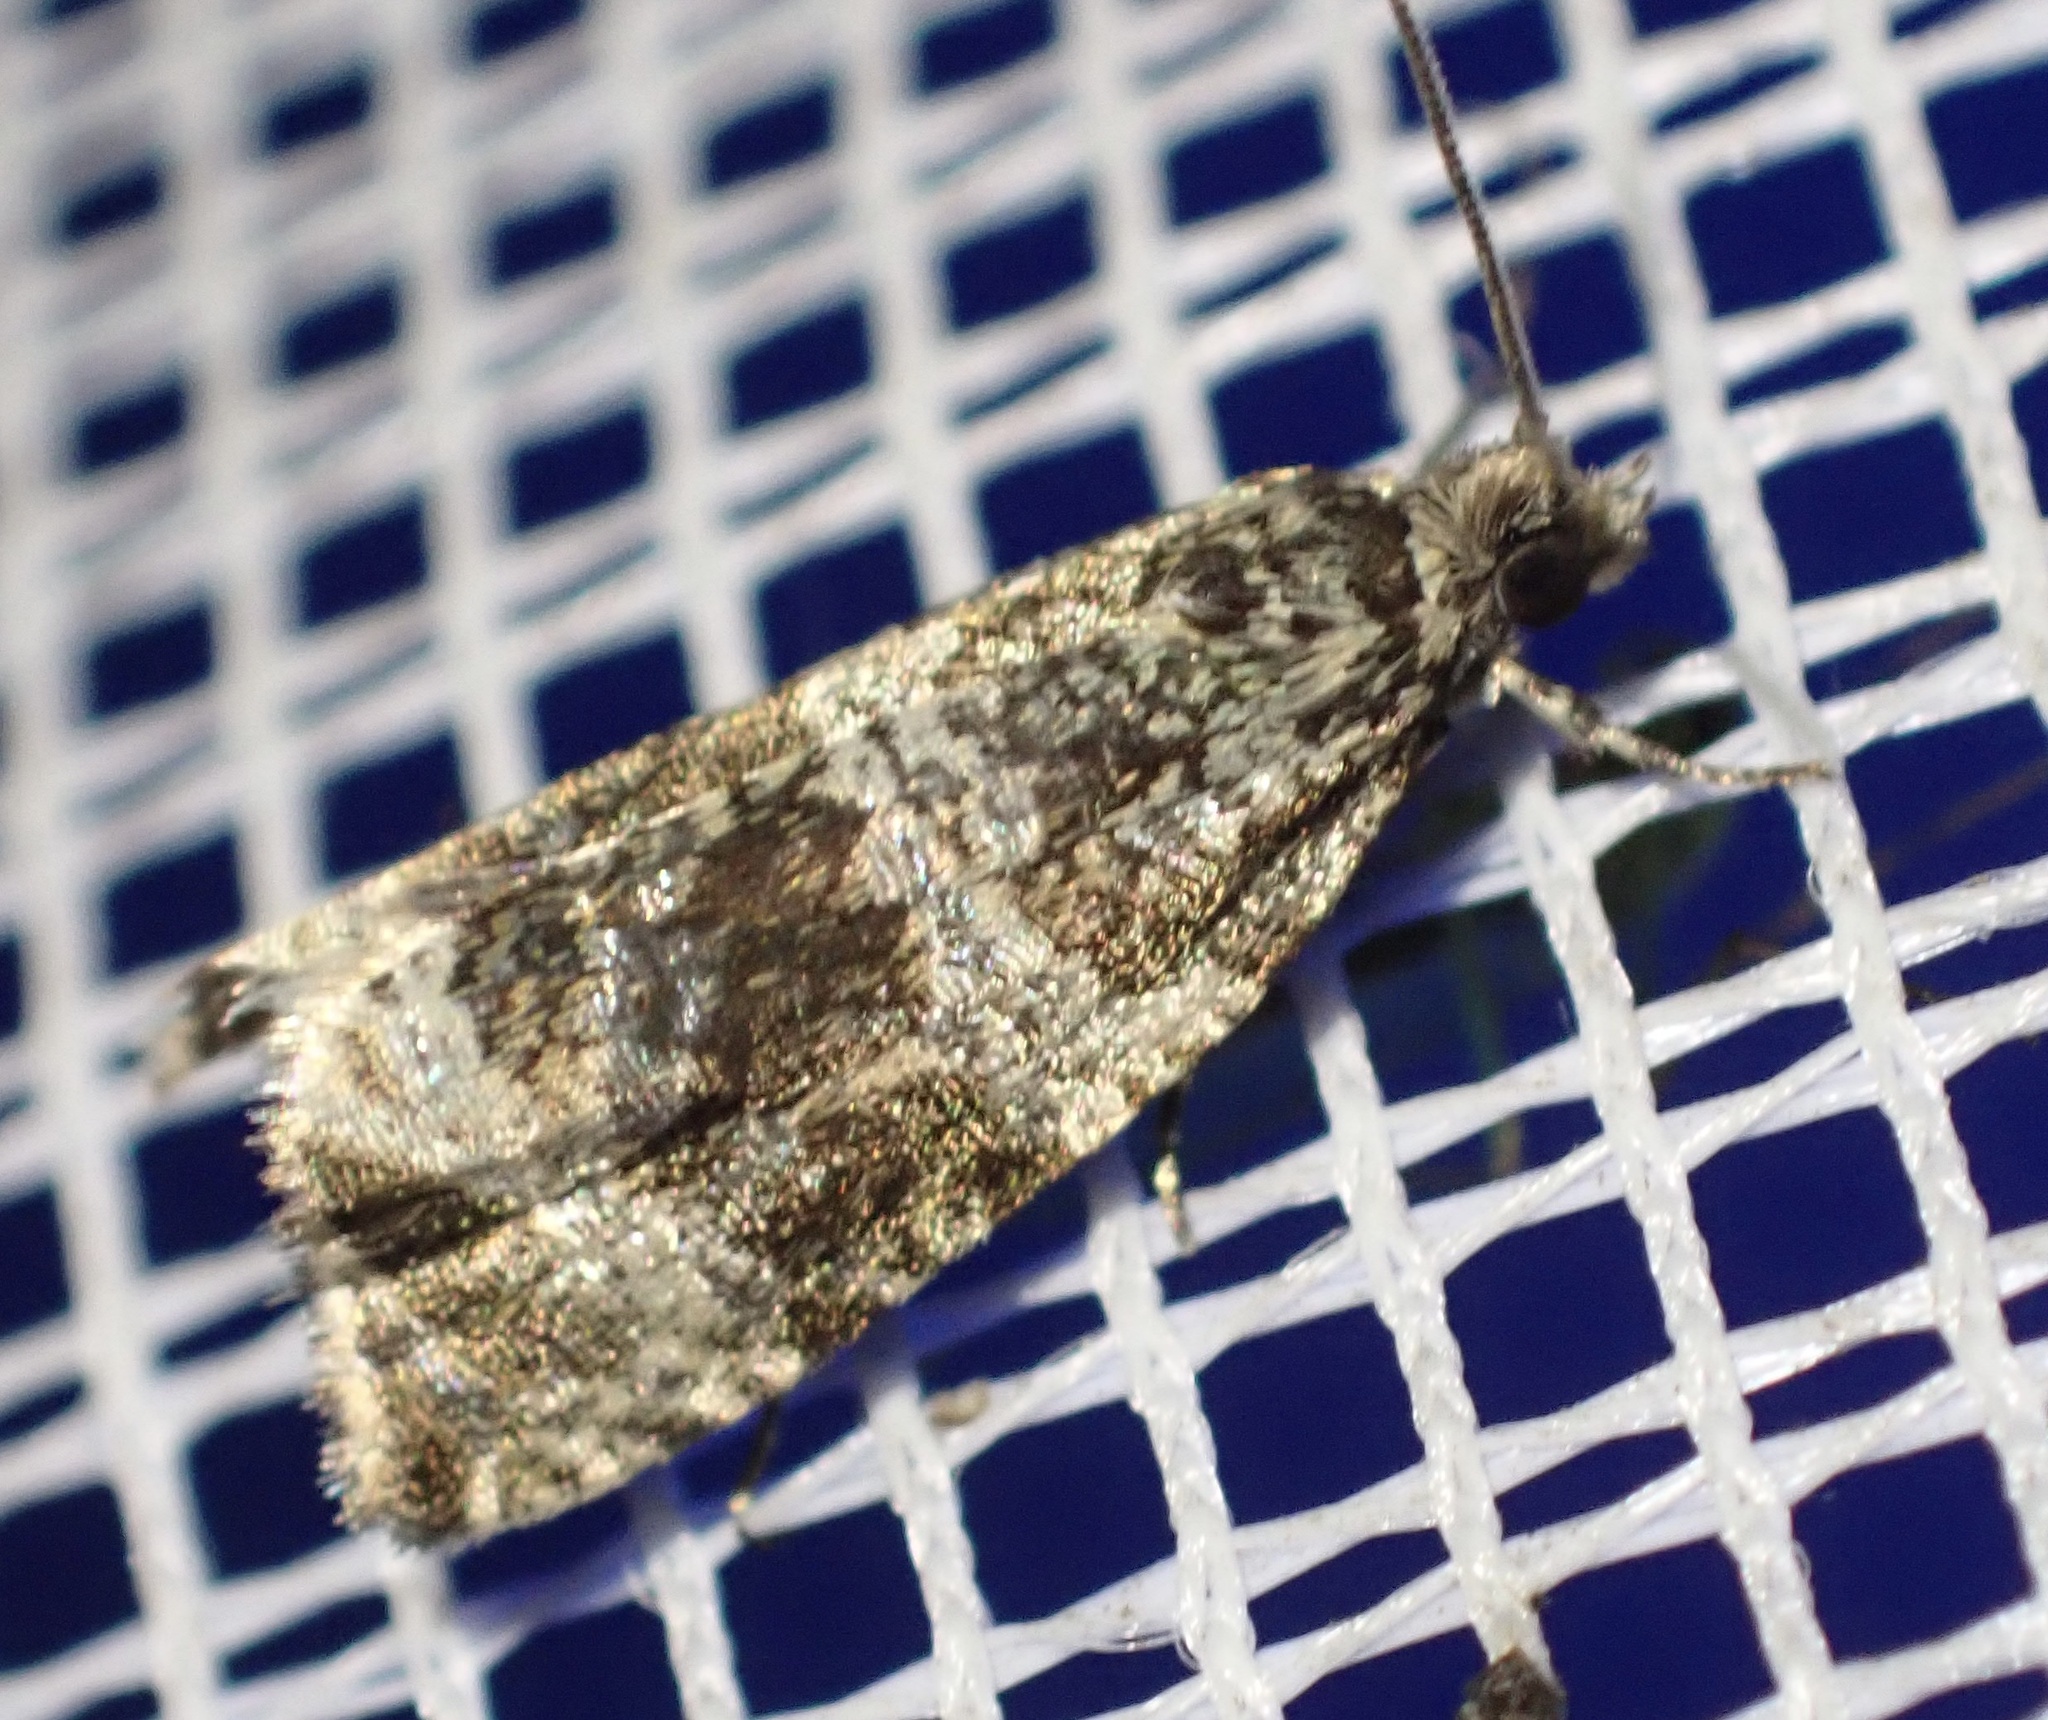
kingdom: Animalia
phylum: Arthropoda
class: Insecta
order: Lepidoptera
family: Tortricidae
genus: Syricoris
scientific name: Syricoris lacunana
